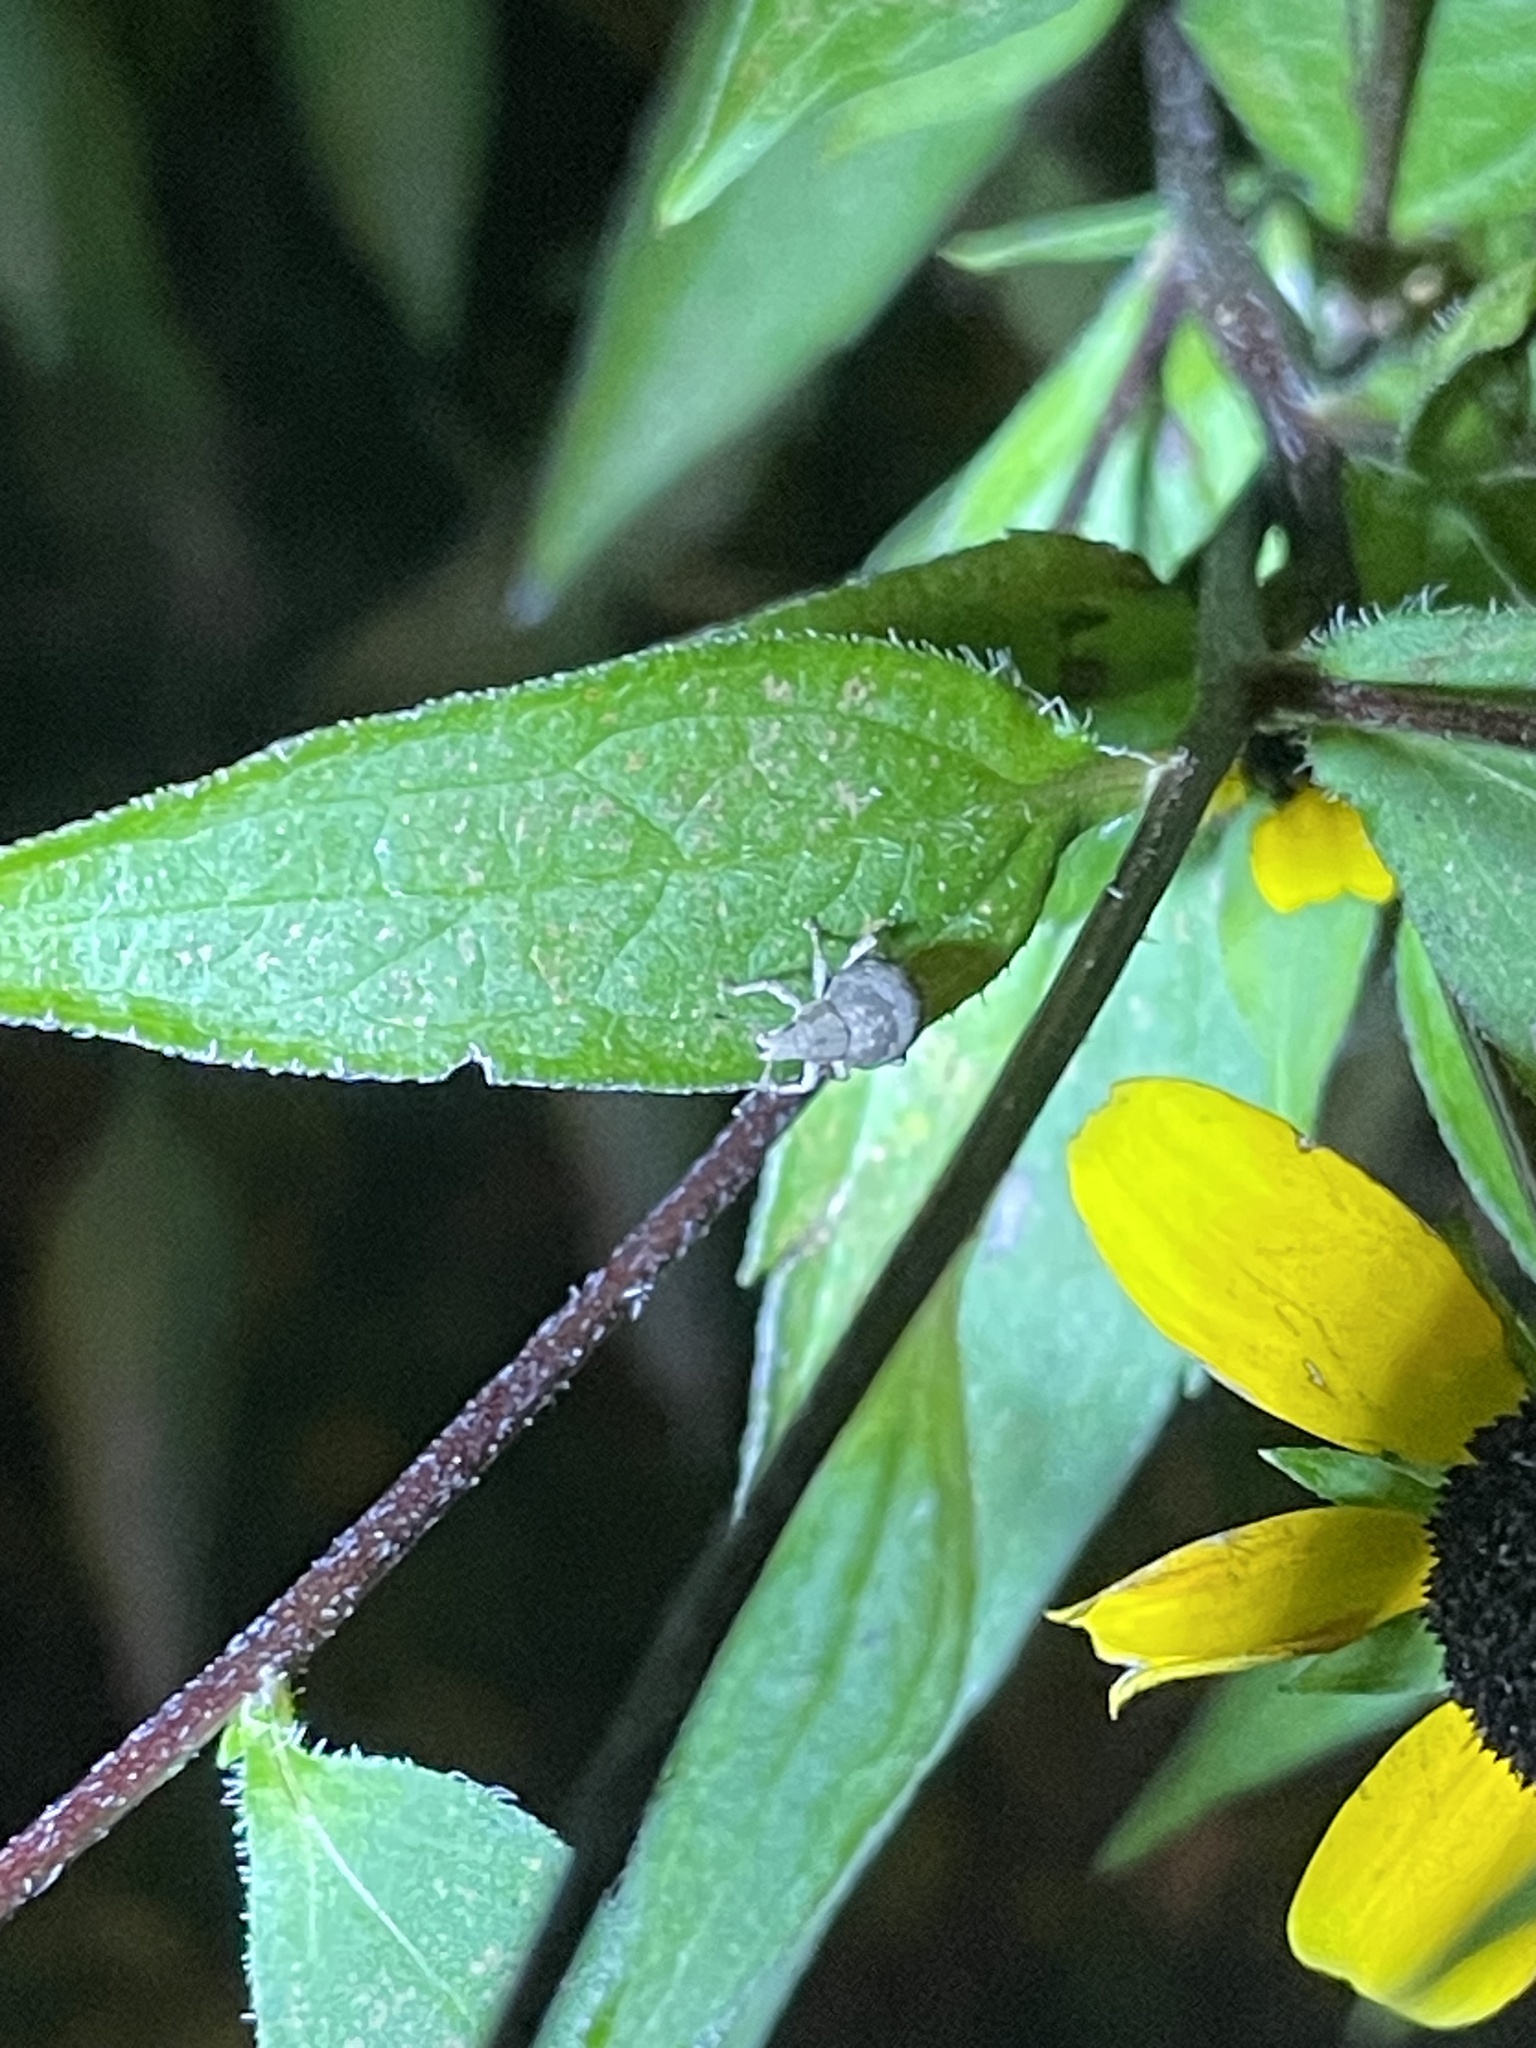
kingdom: Animalia
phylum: Arthropoda
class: Insecta
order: Coleoptera
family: Curculionidae
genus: Pseudocneorhinus
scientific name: Pseudocneorhinus bifasciatus
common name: Two-banded japanese weevil
